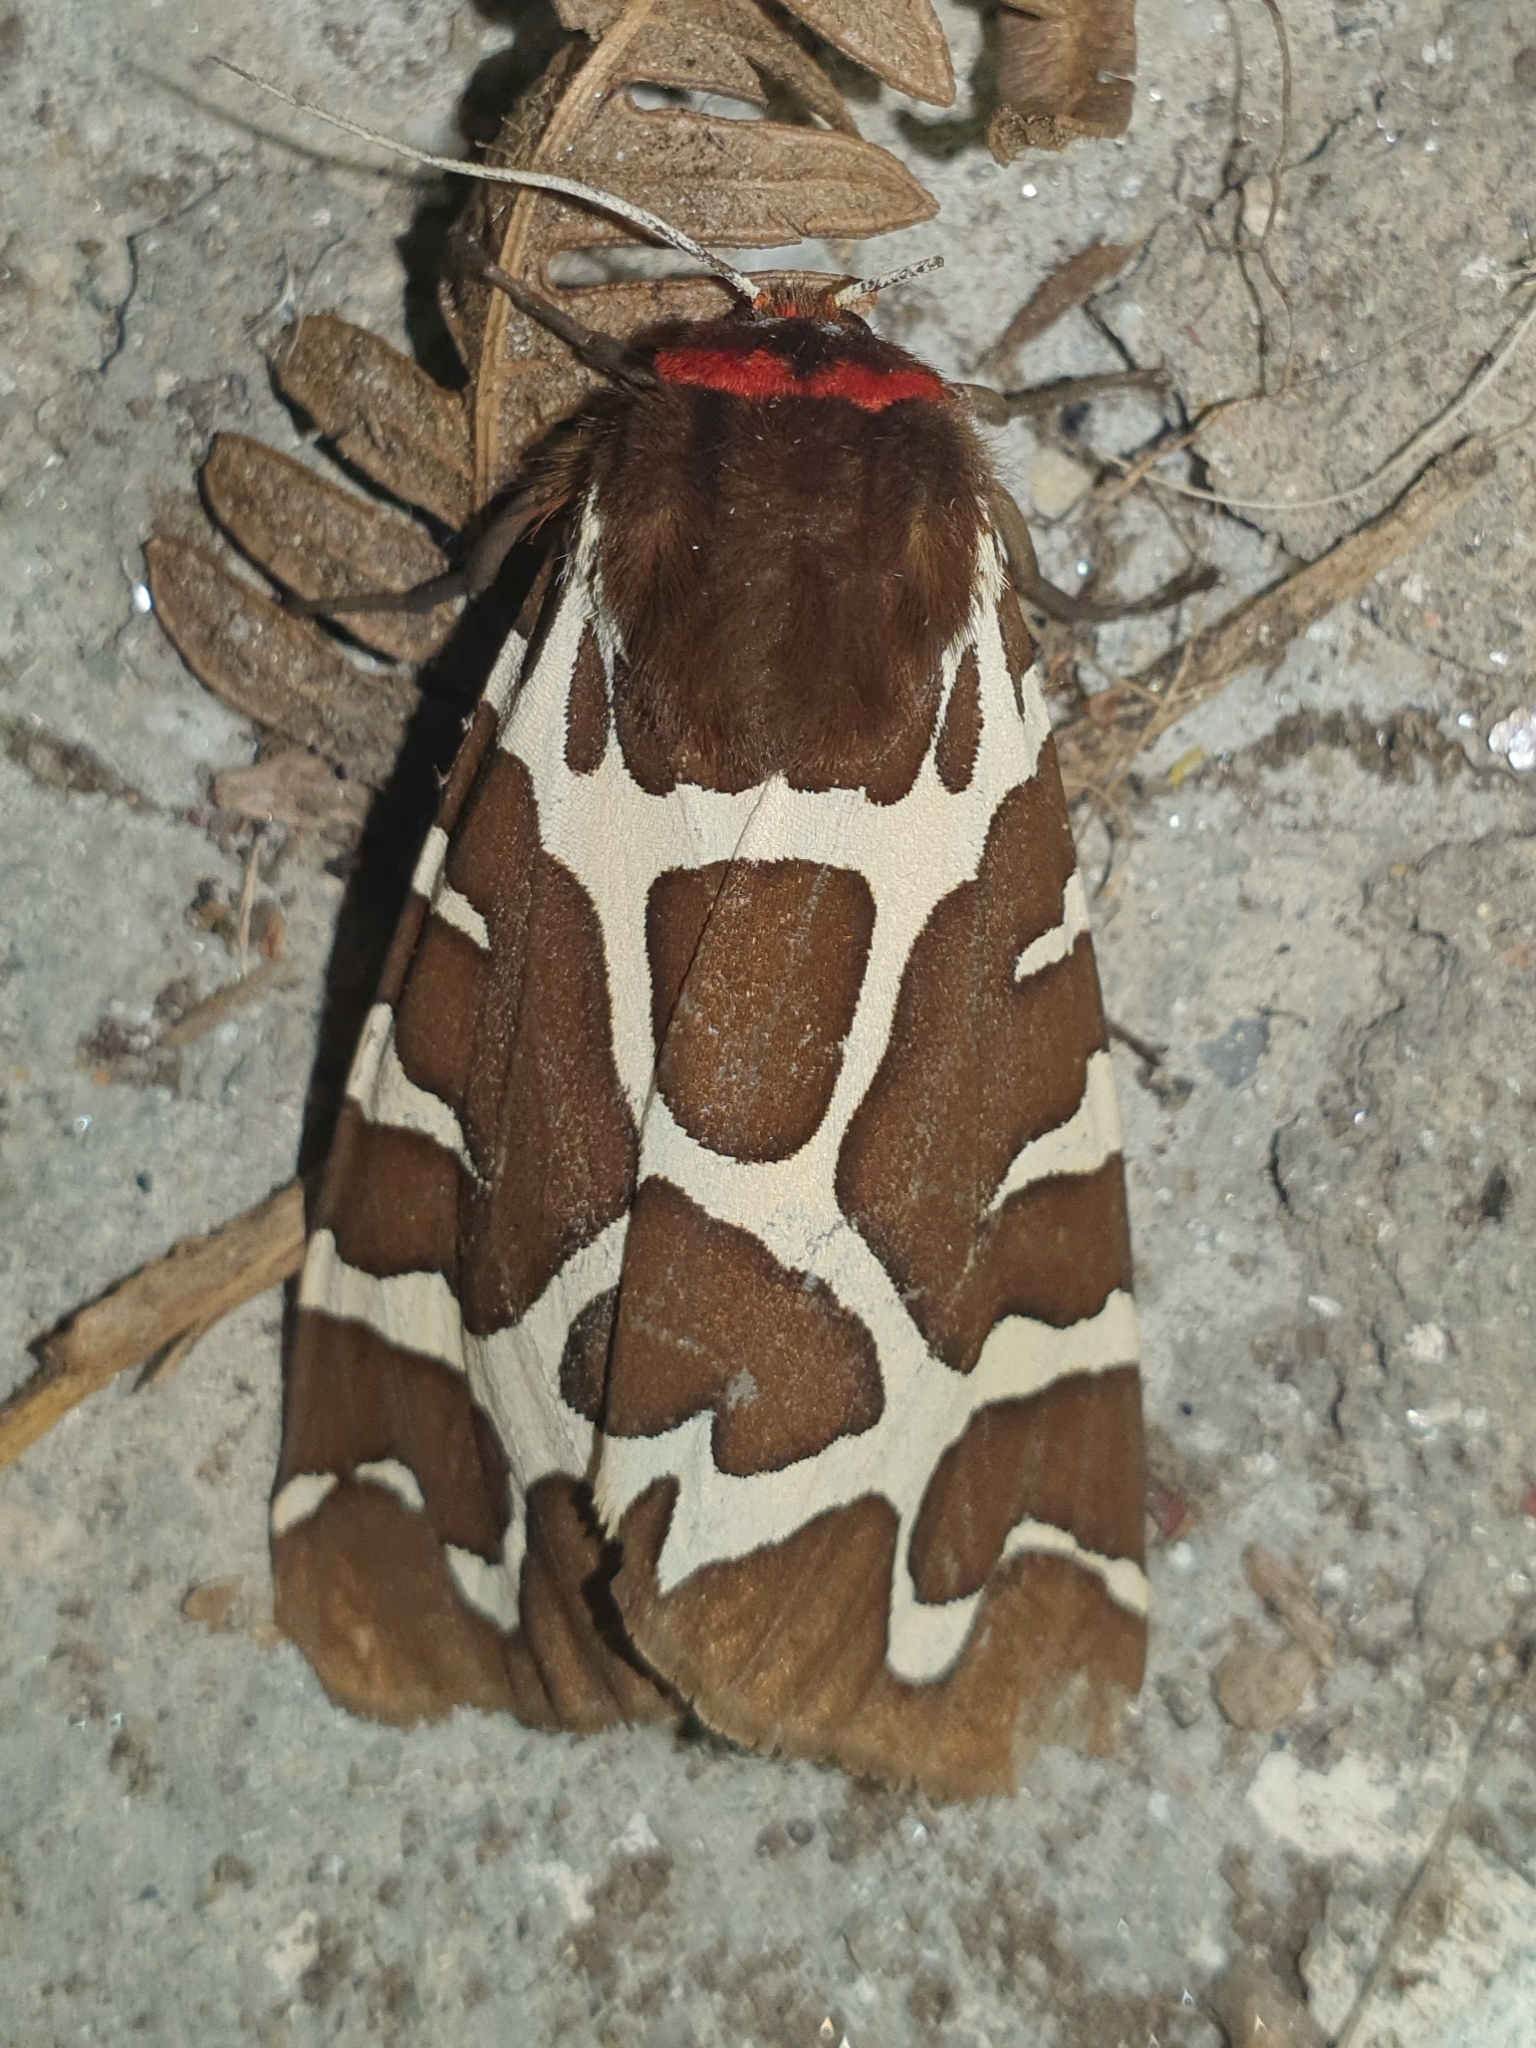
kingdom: Animalia
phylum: Arthropoda
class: Insecta
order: Lepidoptera
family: Erebidae
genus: Arctia
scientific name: Arctia caja
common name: Garden tiger
